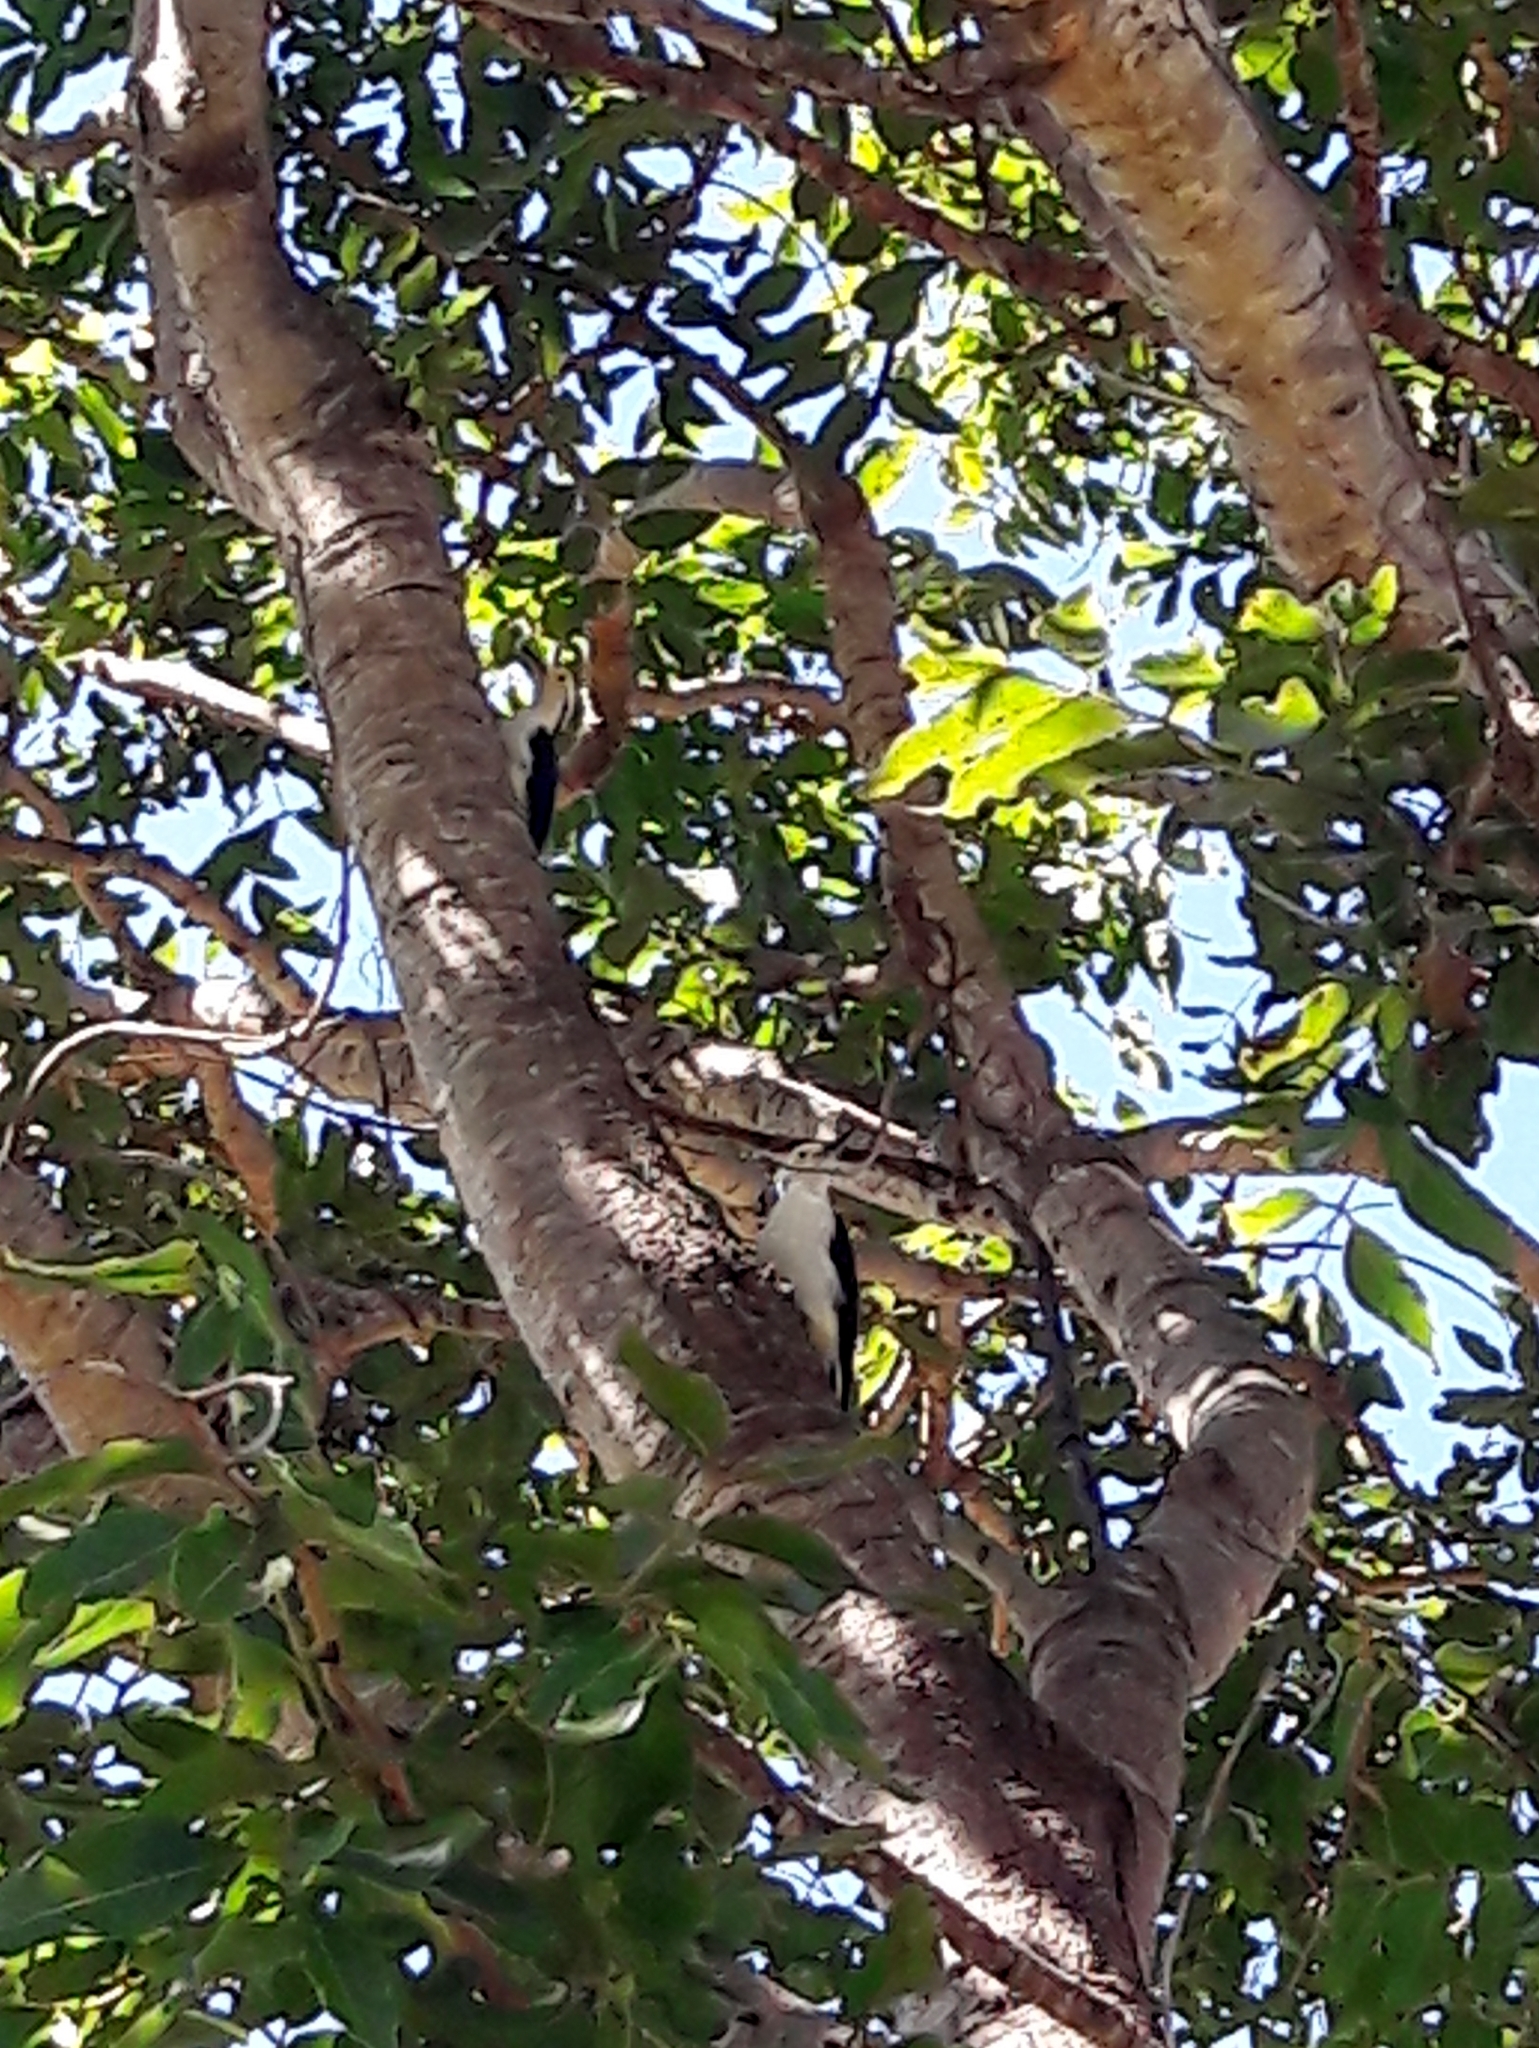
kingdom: Animalia
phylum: Chordata
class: Aves
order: Piciformes
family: Picidae
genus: Melanerpes
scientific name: Melanerpes candidus
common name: White woodpecker
